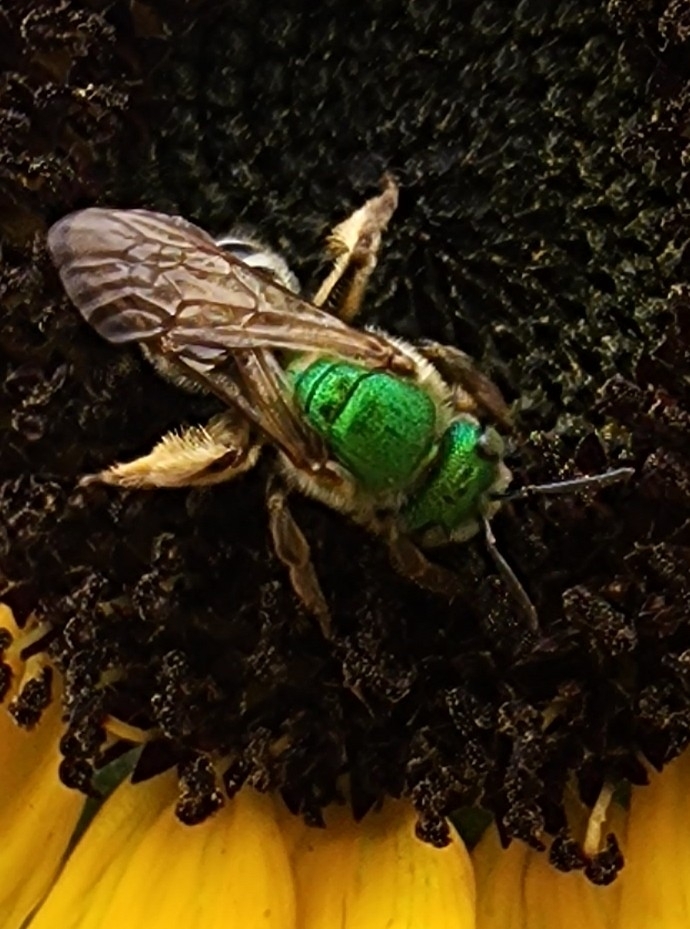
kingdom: Animalia
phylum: Arthropoda
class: Insecta
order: Hymenoptera
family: Halictidae
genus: Agapostemon
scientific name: Agapostemon virescens
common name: Bicolored striped sweat bee
